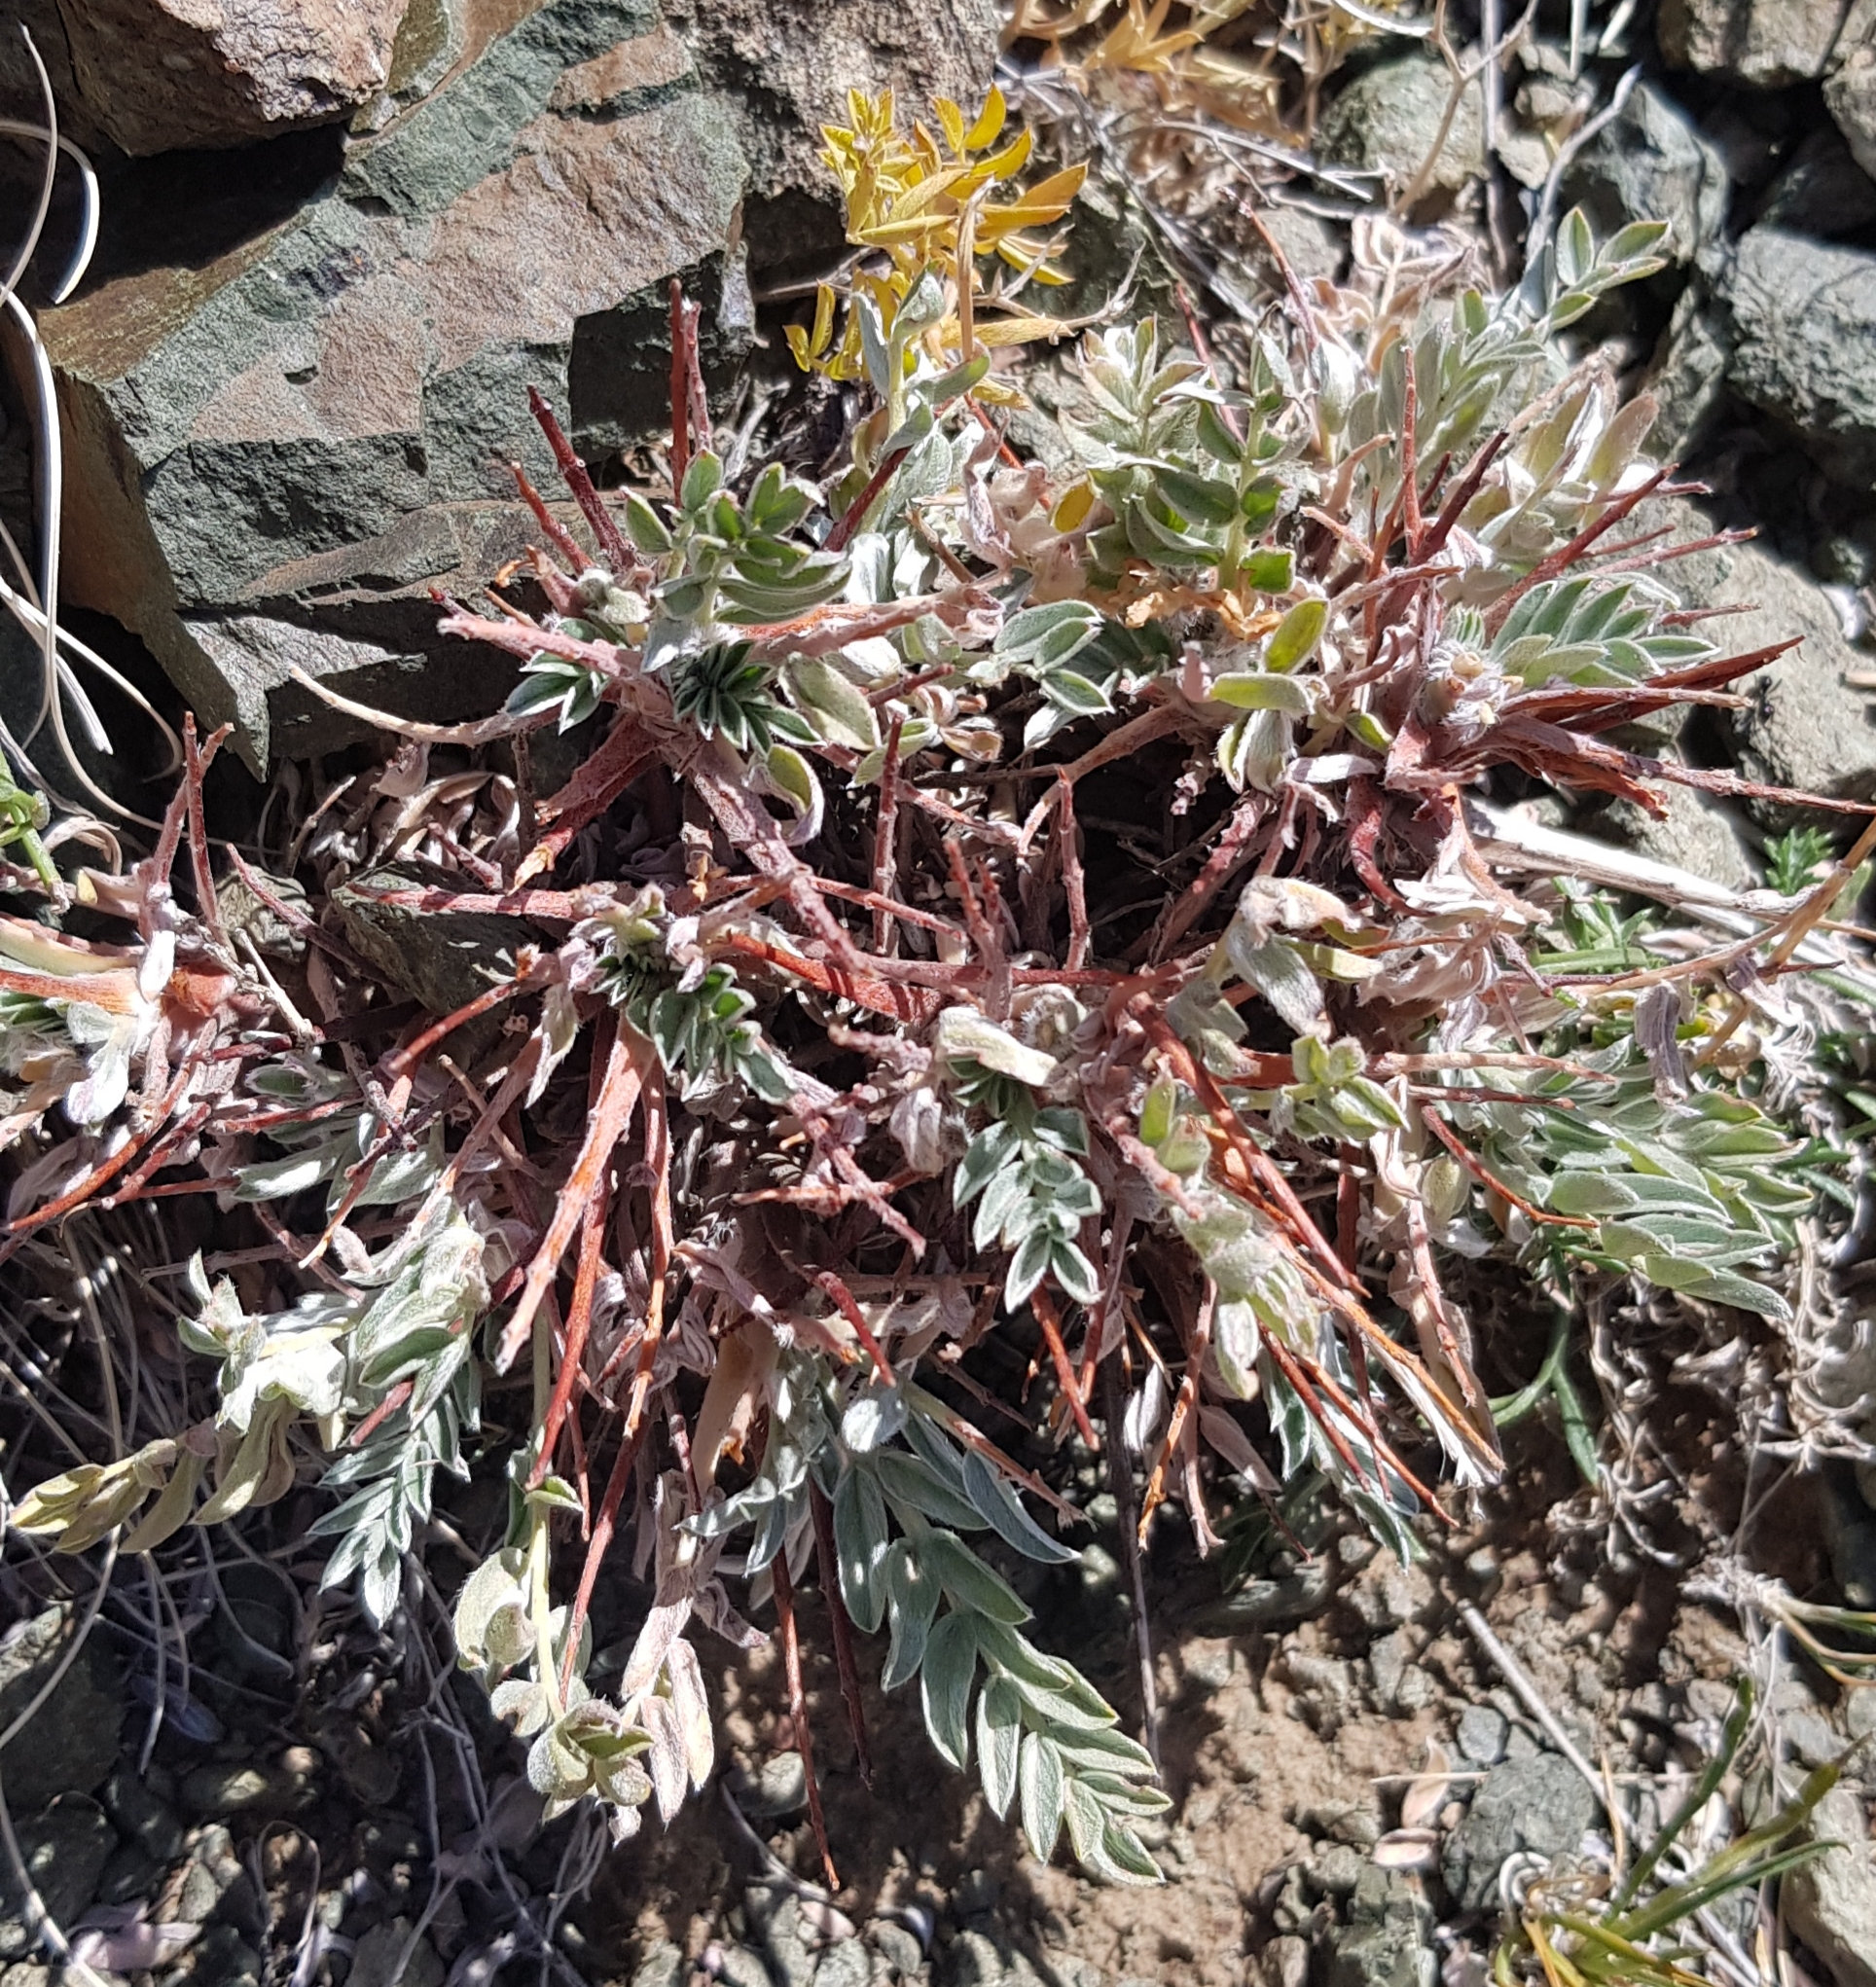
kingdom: Plantae
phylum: Tracheophyta
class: Magnoliopsida
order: Fabales
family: Fabaceae
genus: Oxytropis
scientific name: Oxytropis tragacanthoides
